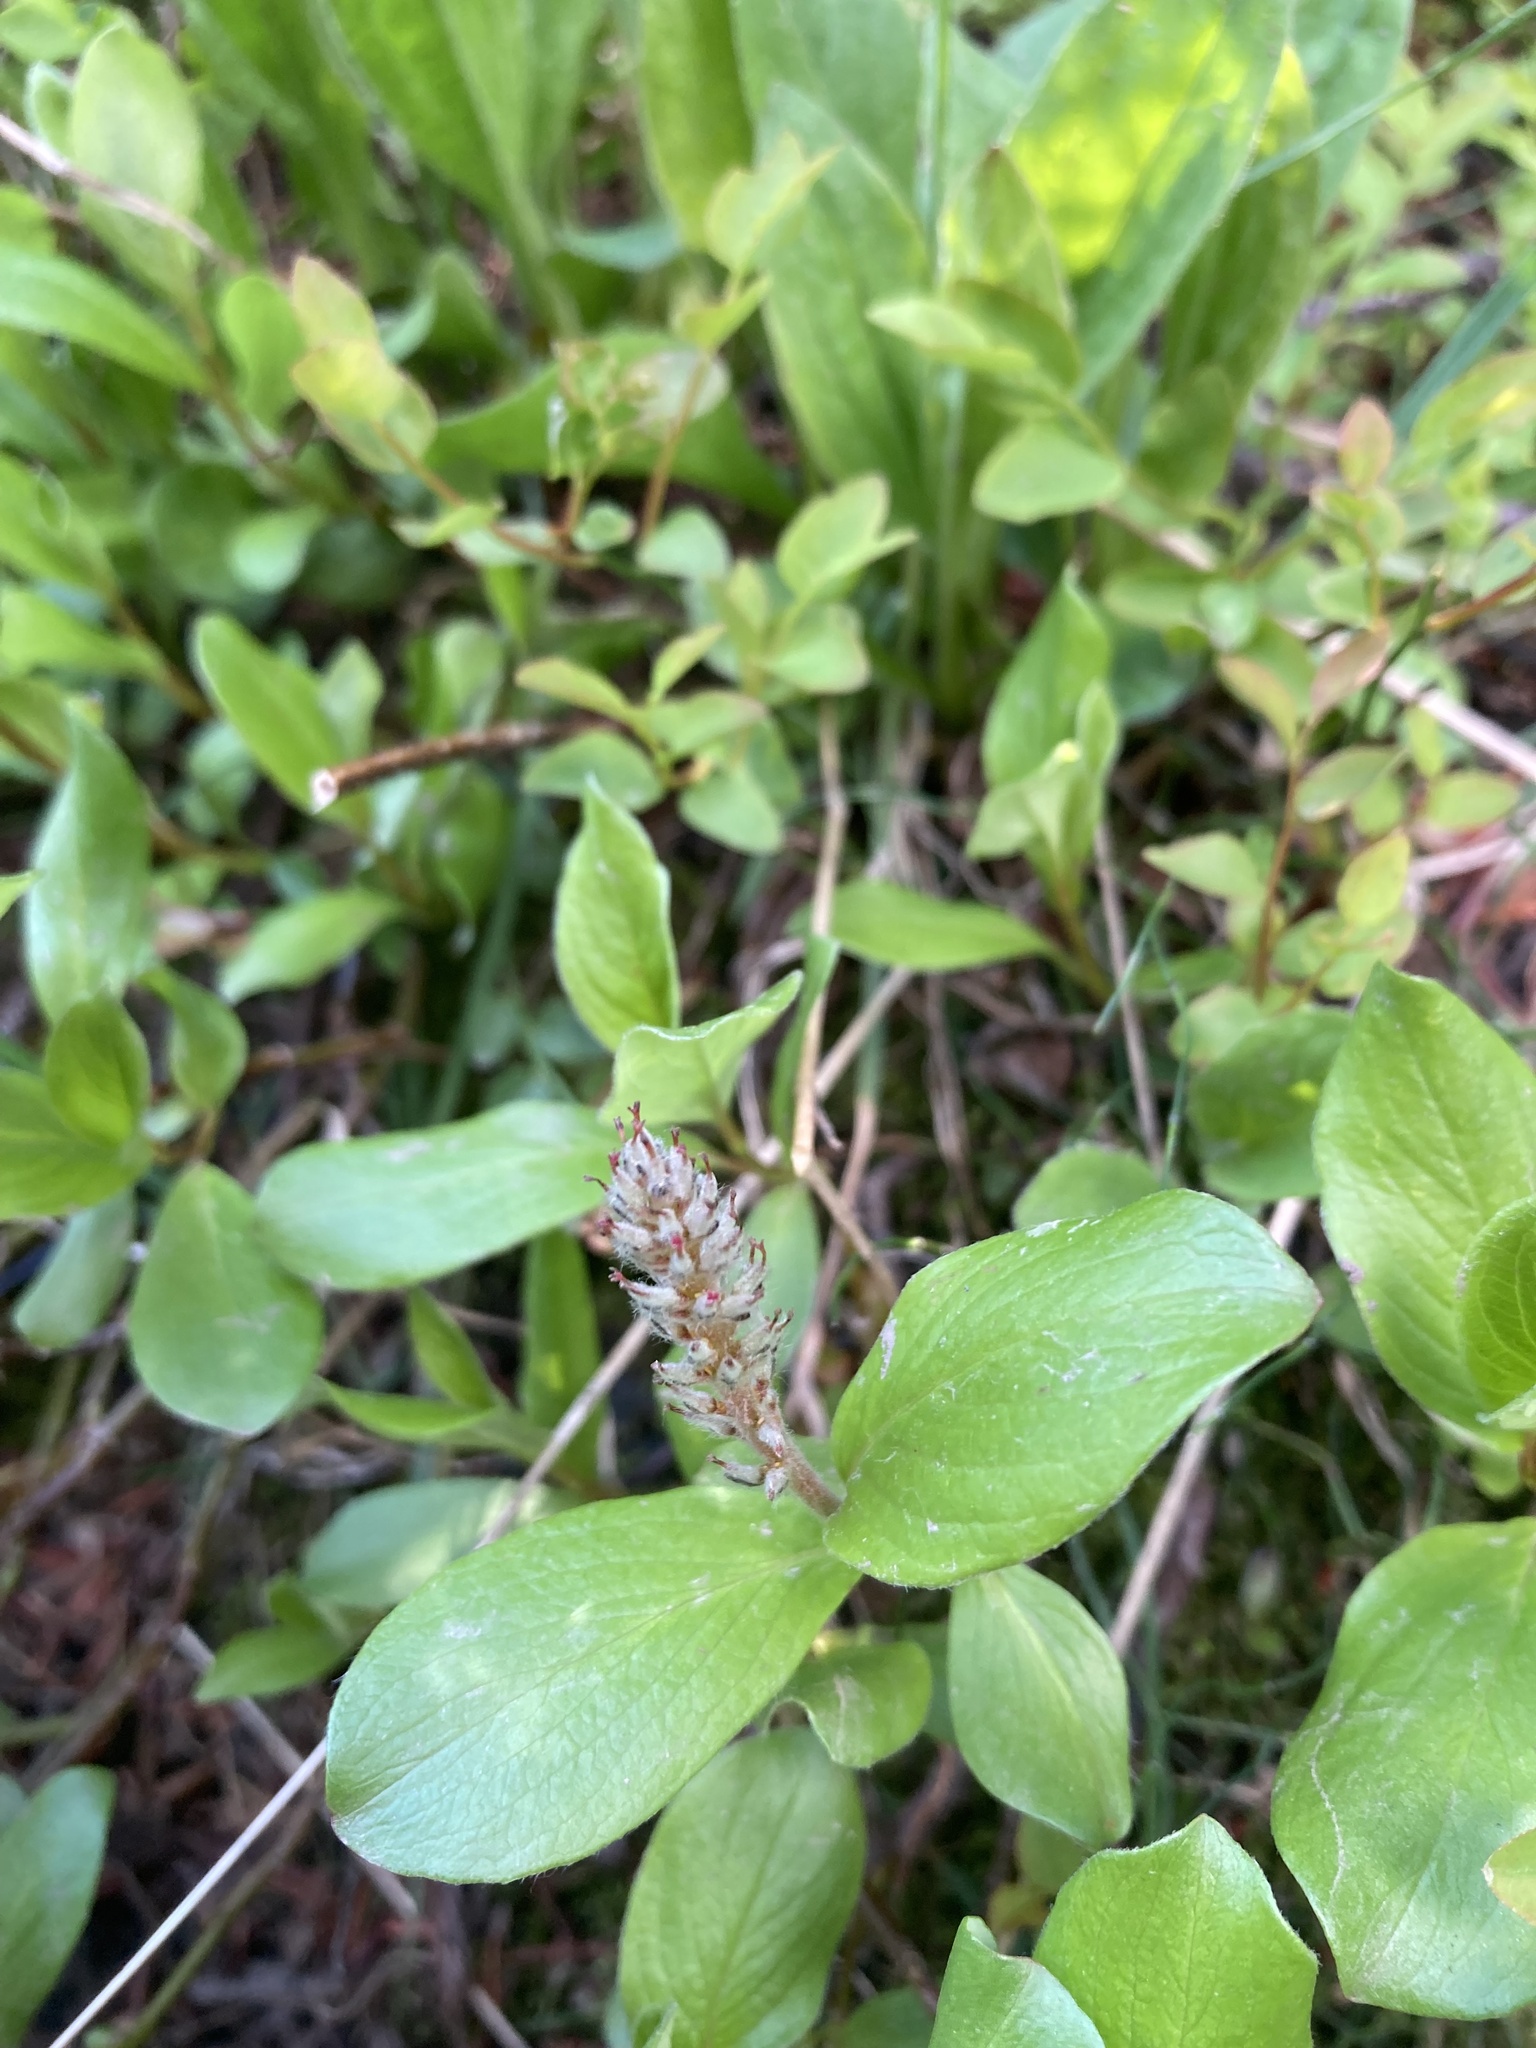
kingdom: Plantae
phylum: Tracheophyta
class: Magnoliopsida
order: Malpighiales
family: Salicaceae
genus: Salix
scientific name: Salix arctica
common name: Arctic willow
